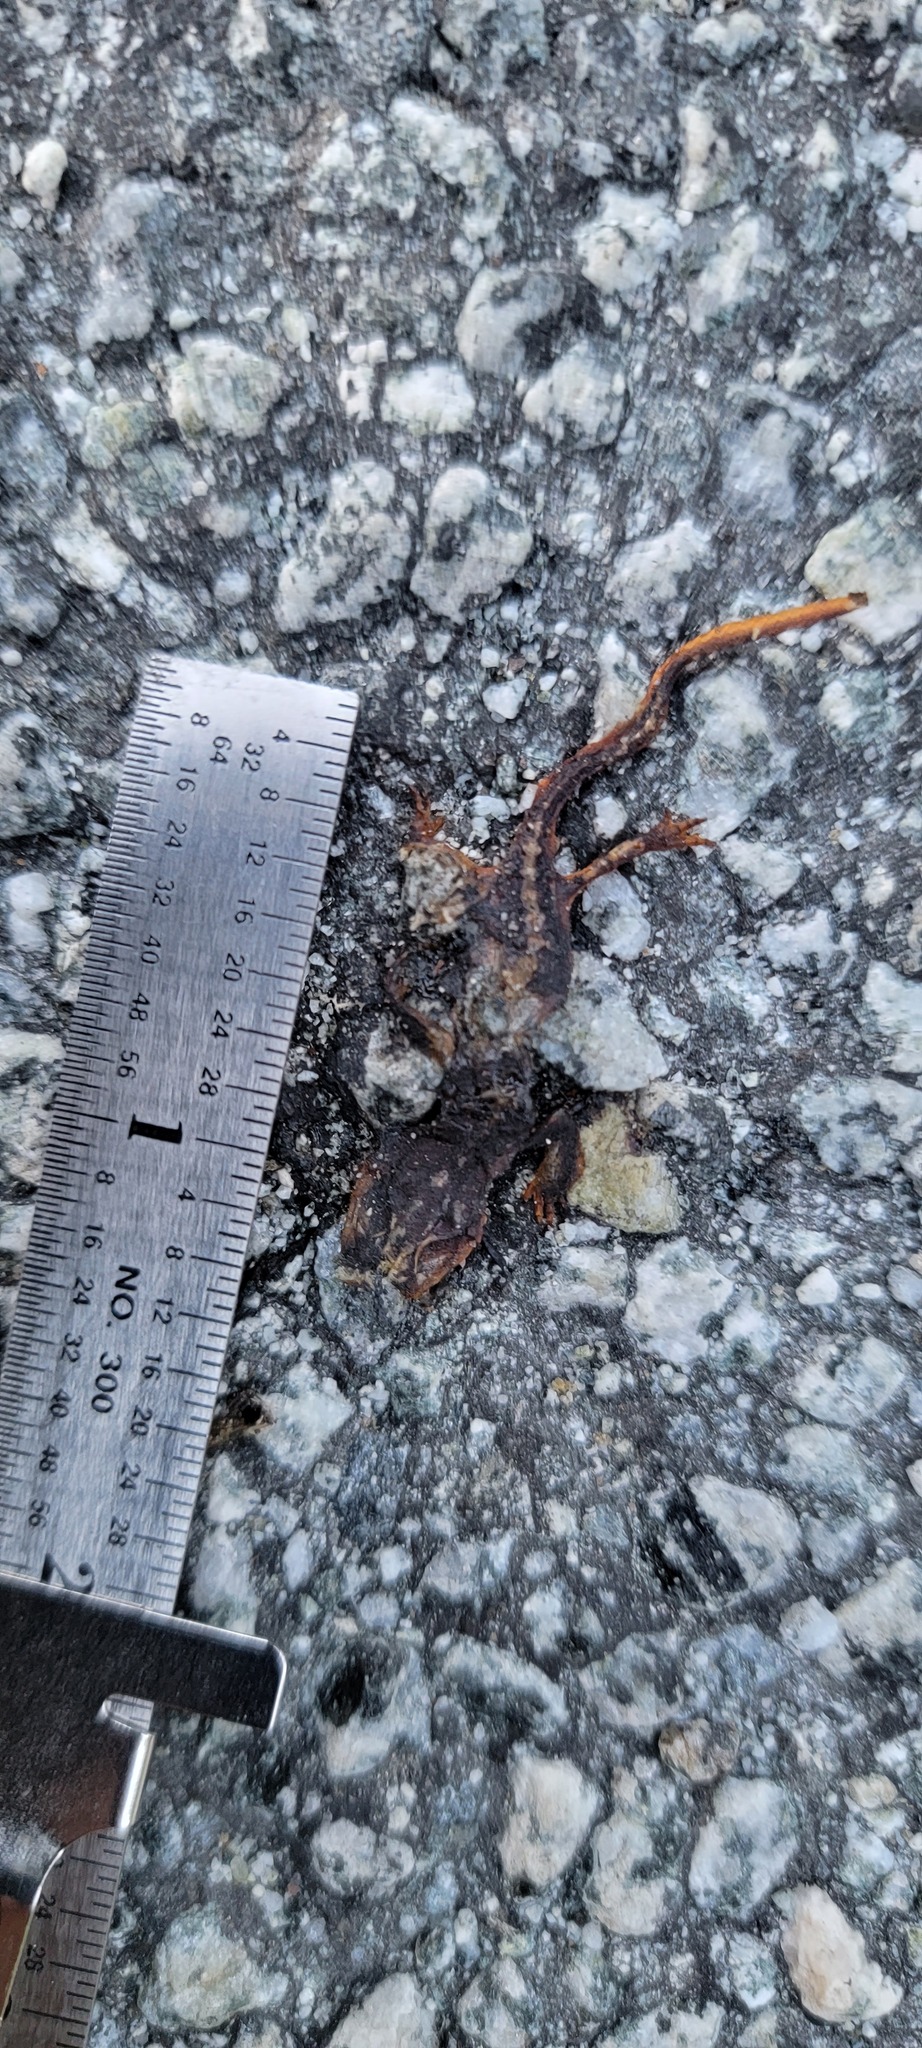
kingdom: Animalia
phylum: Chordata
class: Amphibia
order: Caudata
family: Salamandridae
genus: Taricha
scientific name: Taricha
